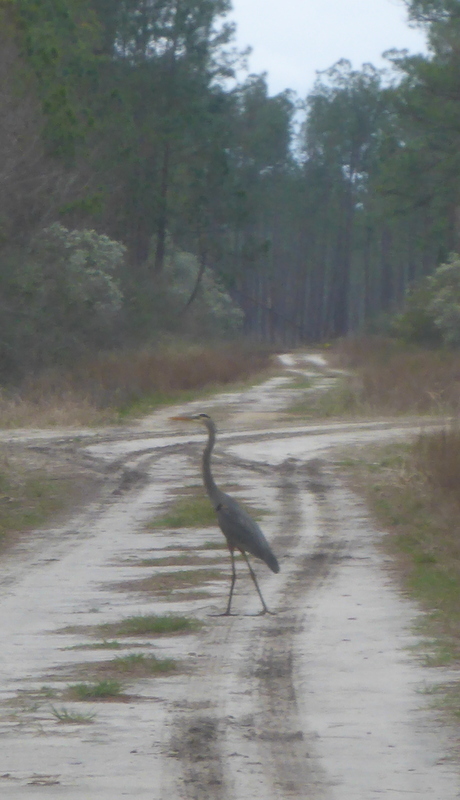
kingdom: Animalia
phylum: Chordata
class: Aves
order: Pelecaniformes
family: Ardeidae
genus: Ardea
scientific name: Ardea herodias
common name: Great blue heron
